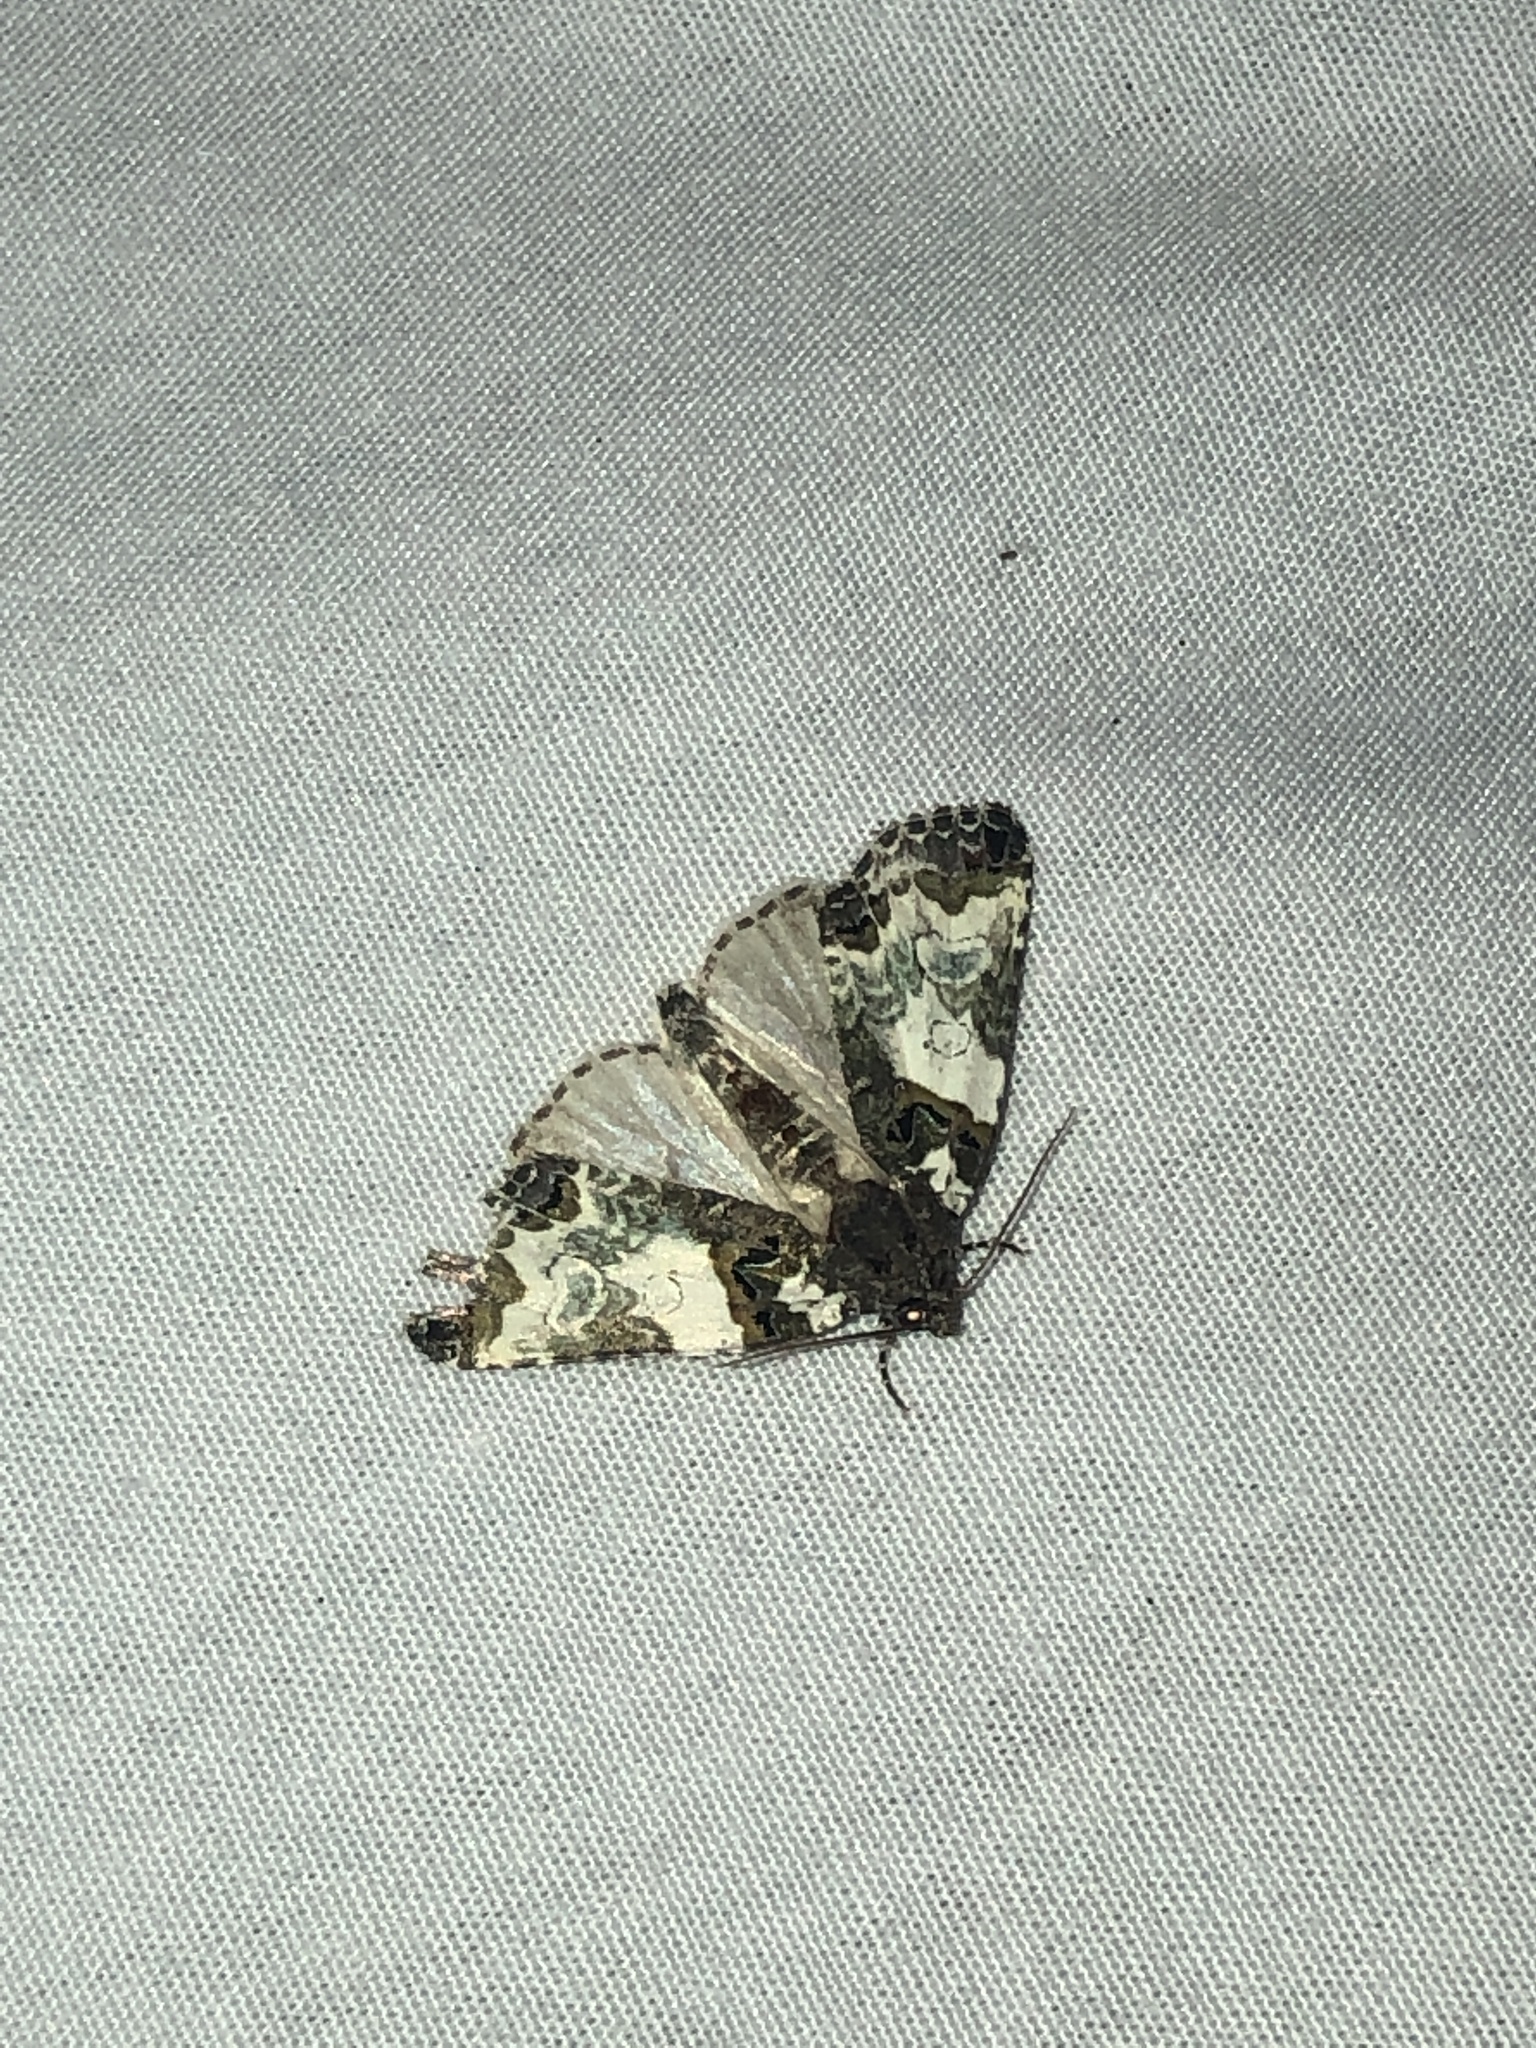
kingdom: Animalia
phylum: Arthropoda
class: Insecta
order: Lepidoptera
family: Noctuidae
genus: Cerma
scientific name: Cerma cerintha
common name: Tufted bird-dropping moth
